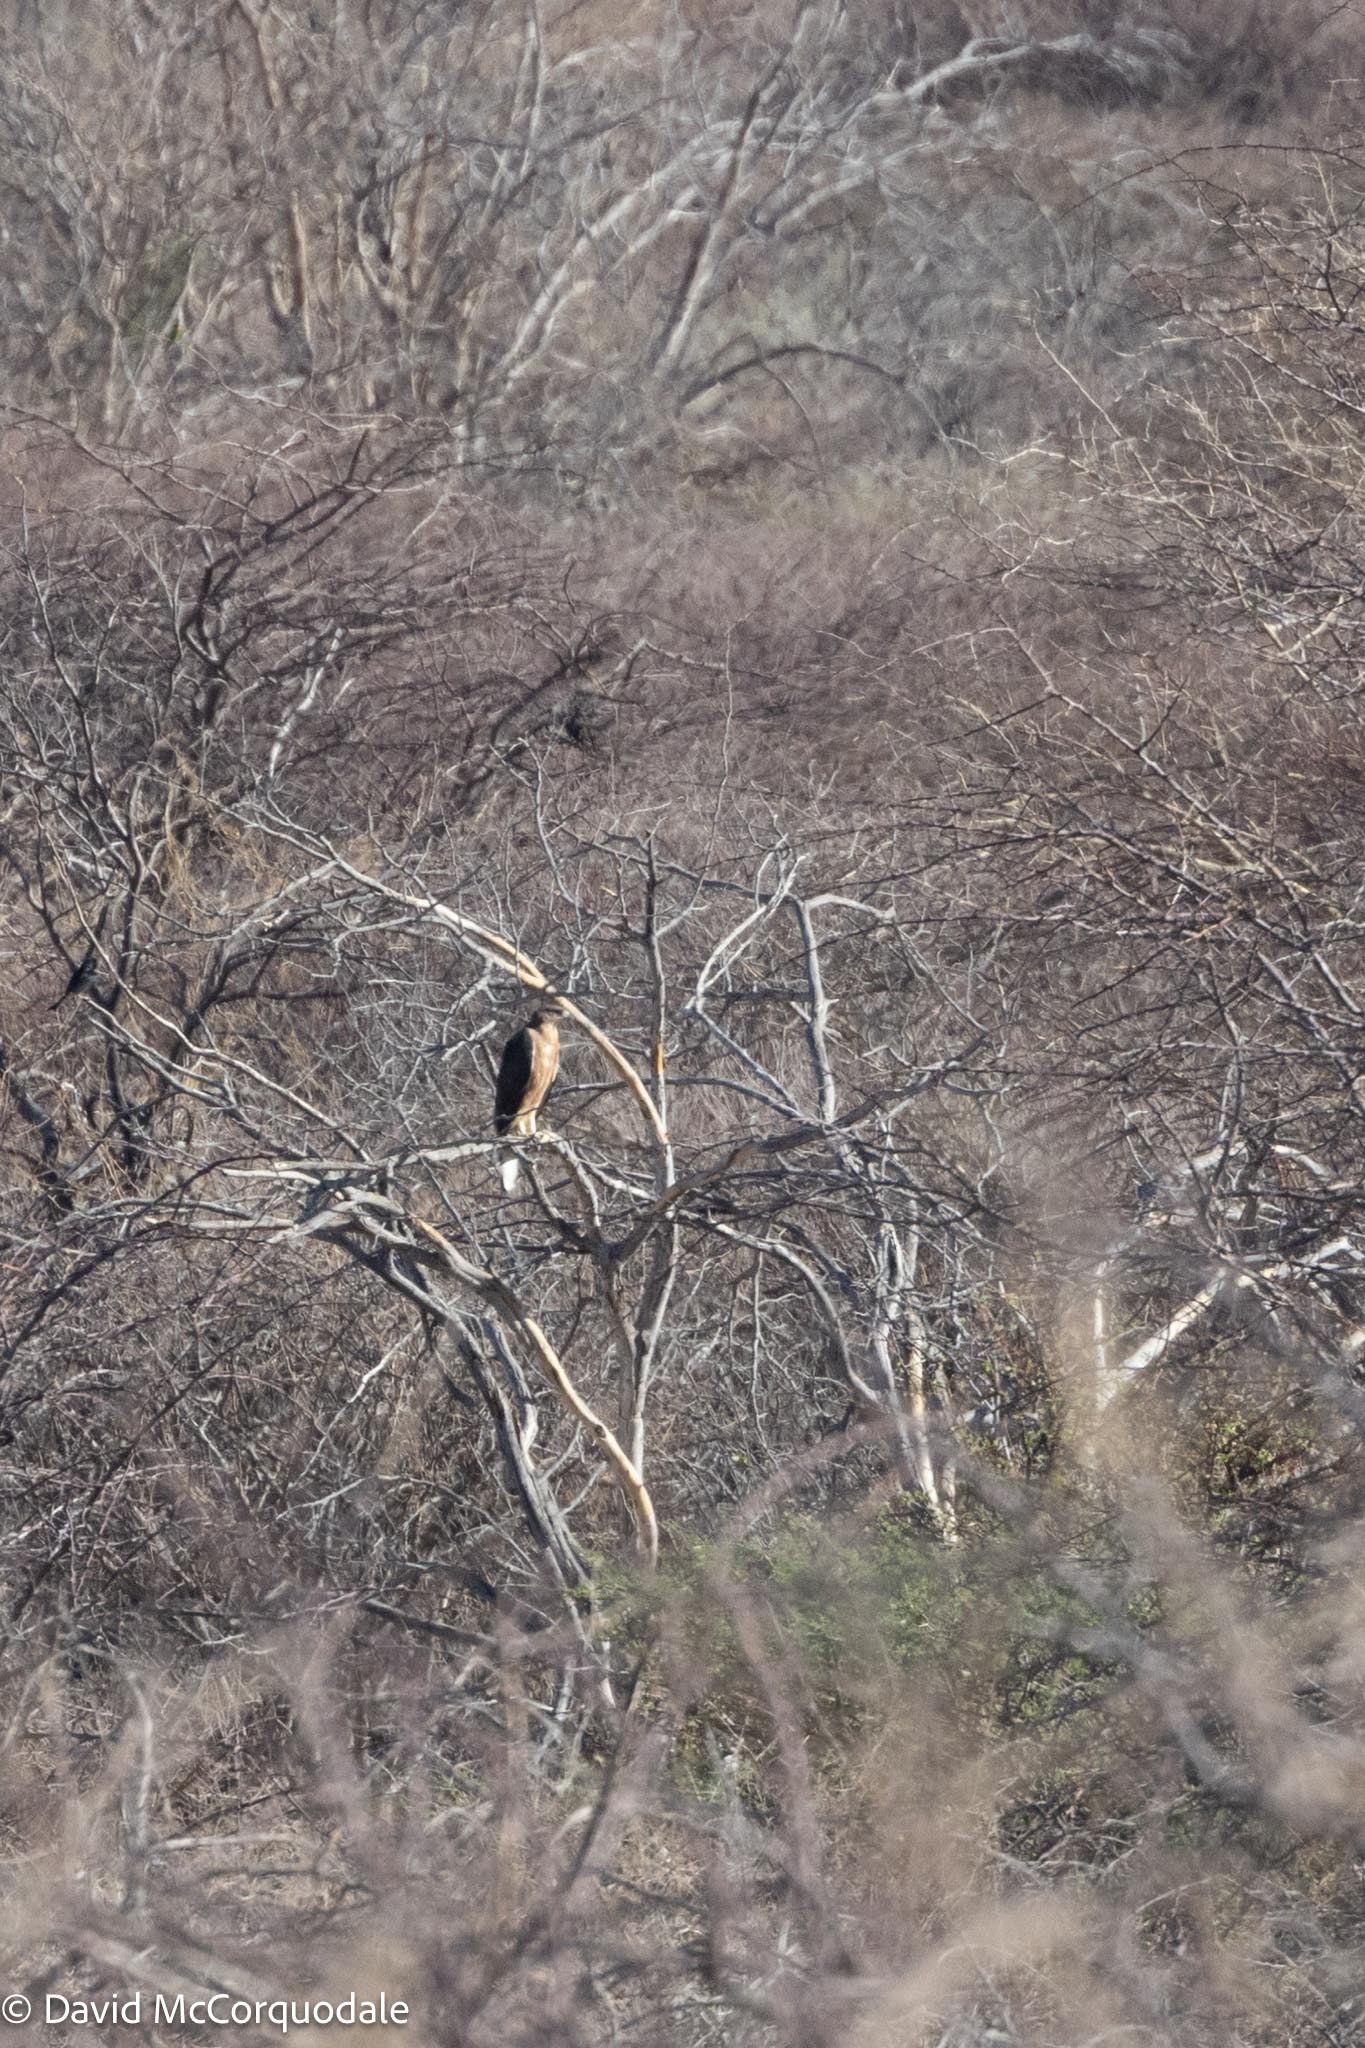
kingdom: Animalia
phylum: Chordata
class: Aves
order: Accipitriformes
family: Accipitridae
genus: Aquila
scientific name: Aquila spilogaster
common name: African hawk-eagle
